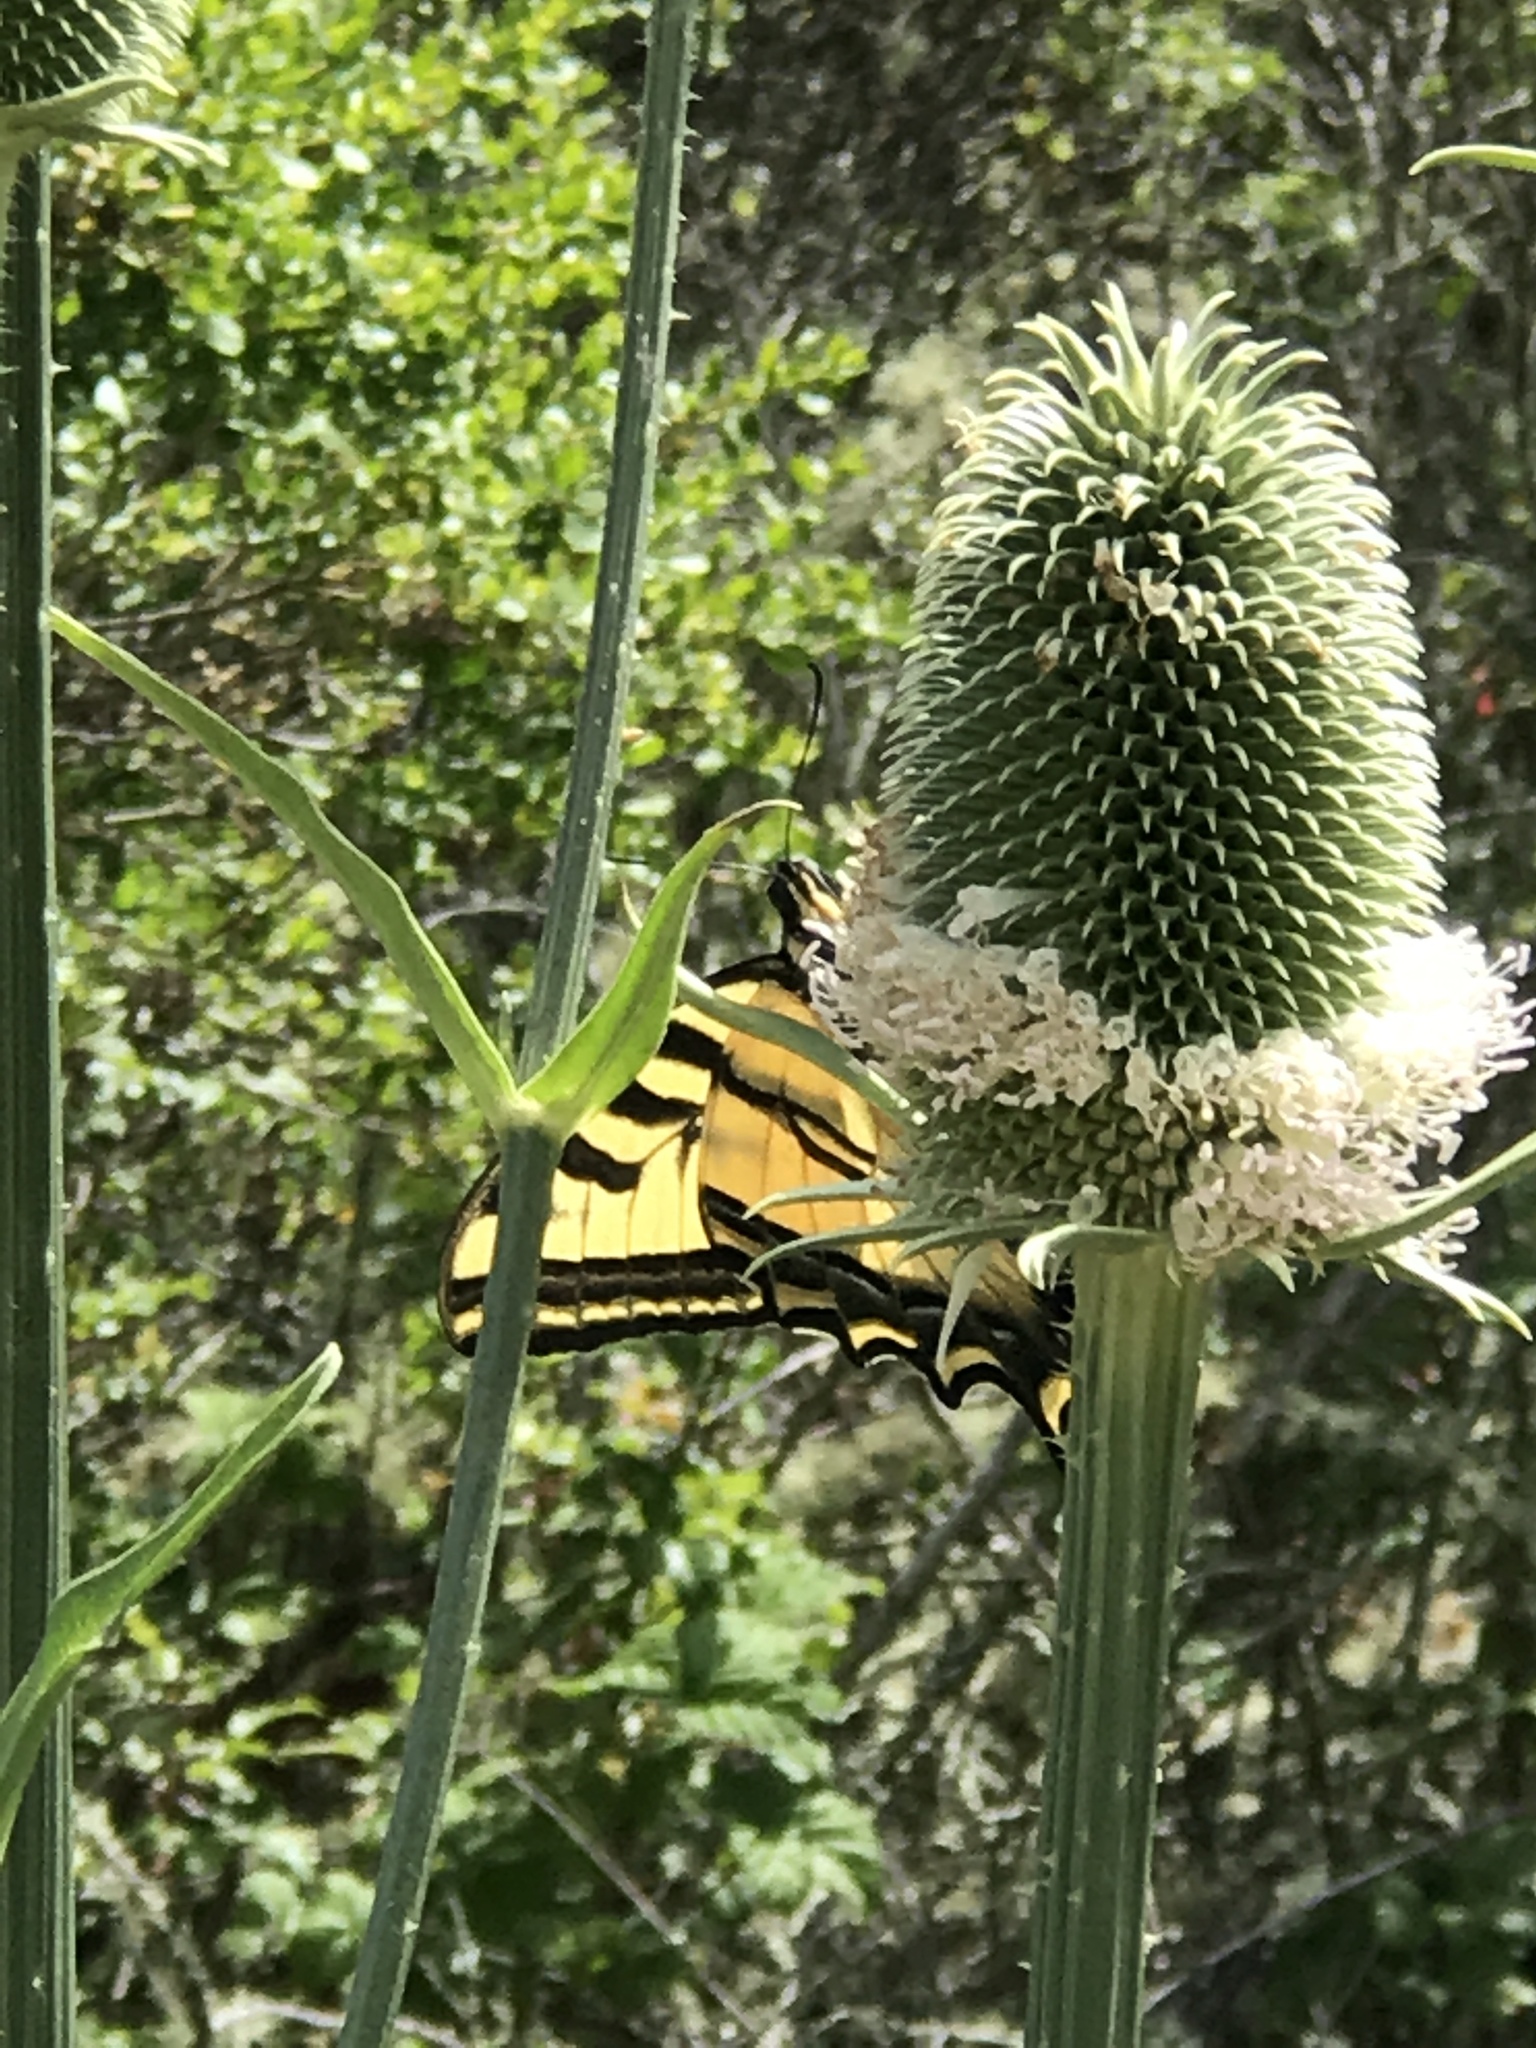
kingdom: Animalia
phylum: Arthropoda
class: Insecta
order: Lepidoptera
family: Papilionidae
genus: Papilio
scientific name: Papilio rutulus
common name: Western tiger swallowtail
